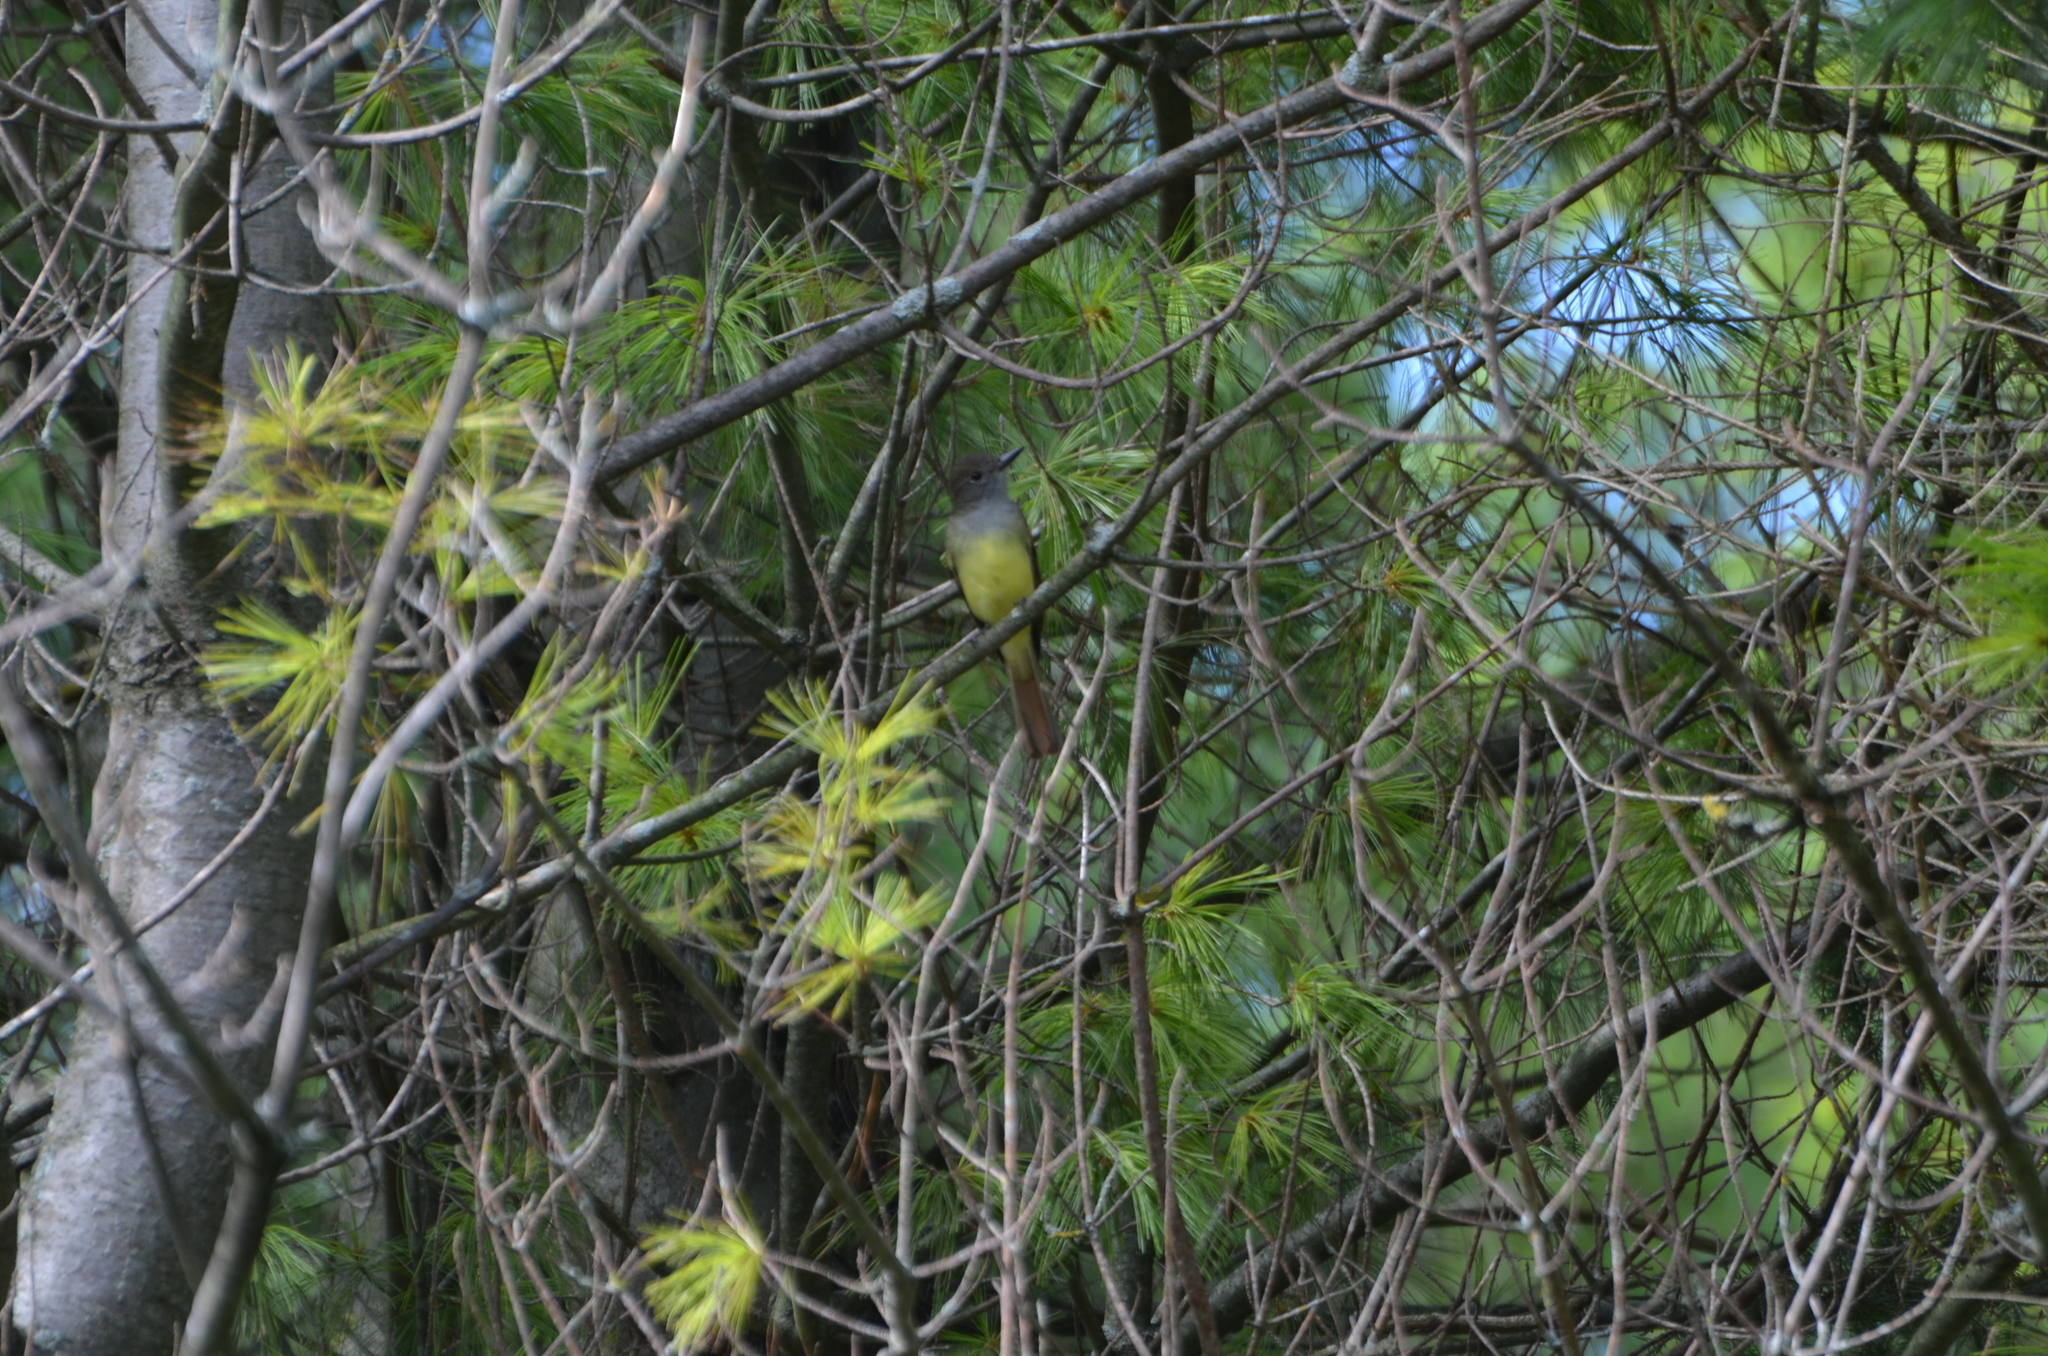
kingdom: Animalia
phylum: Chordata
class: Aves
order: Passeriformes
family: Tyrannidae
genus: Myiarchus
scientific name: Myiarchus crinitus
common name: Great crested flycatcher
